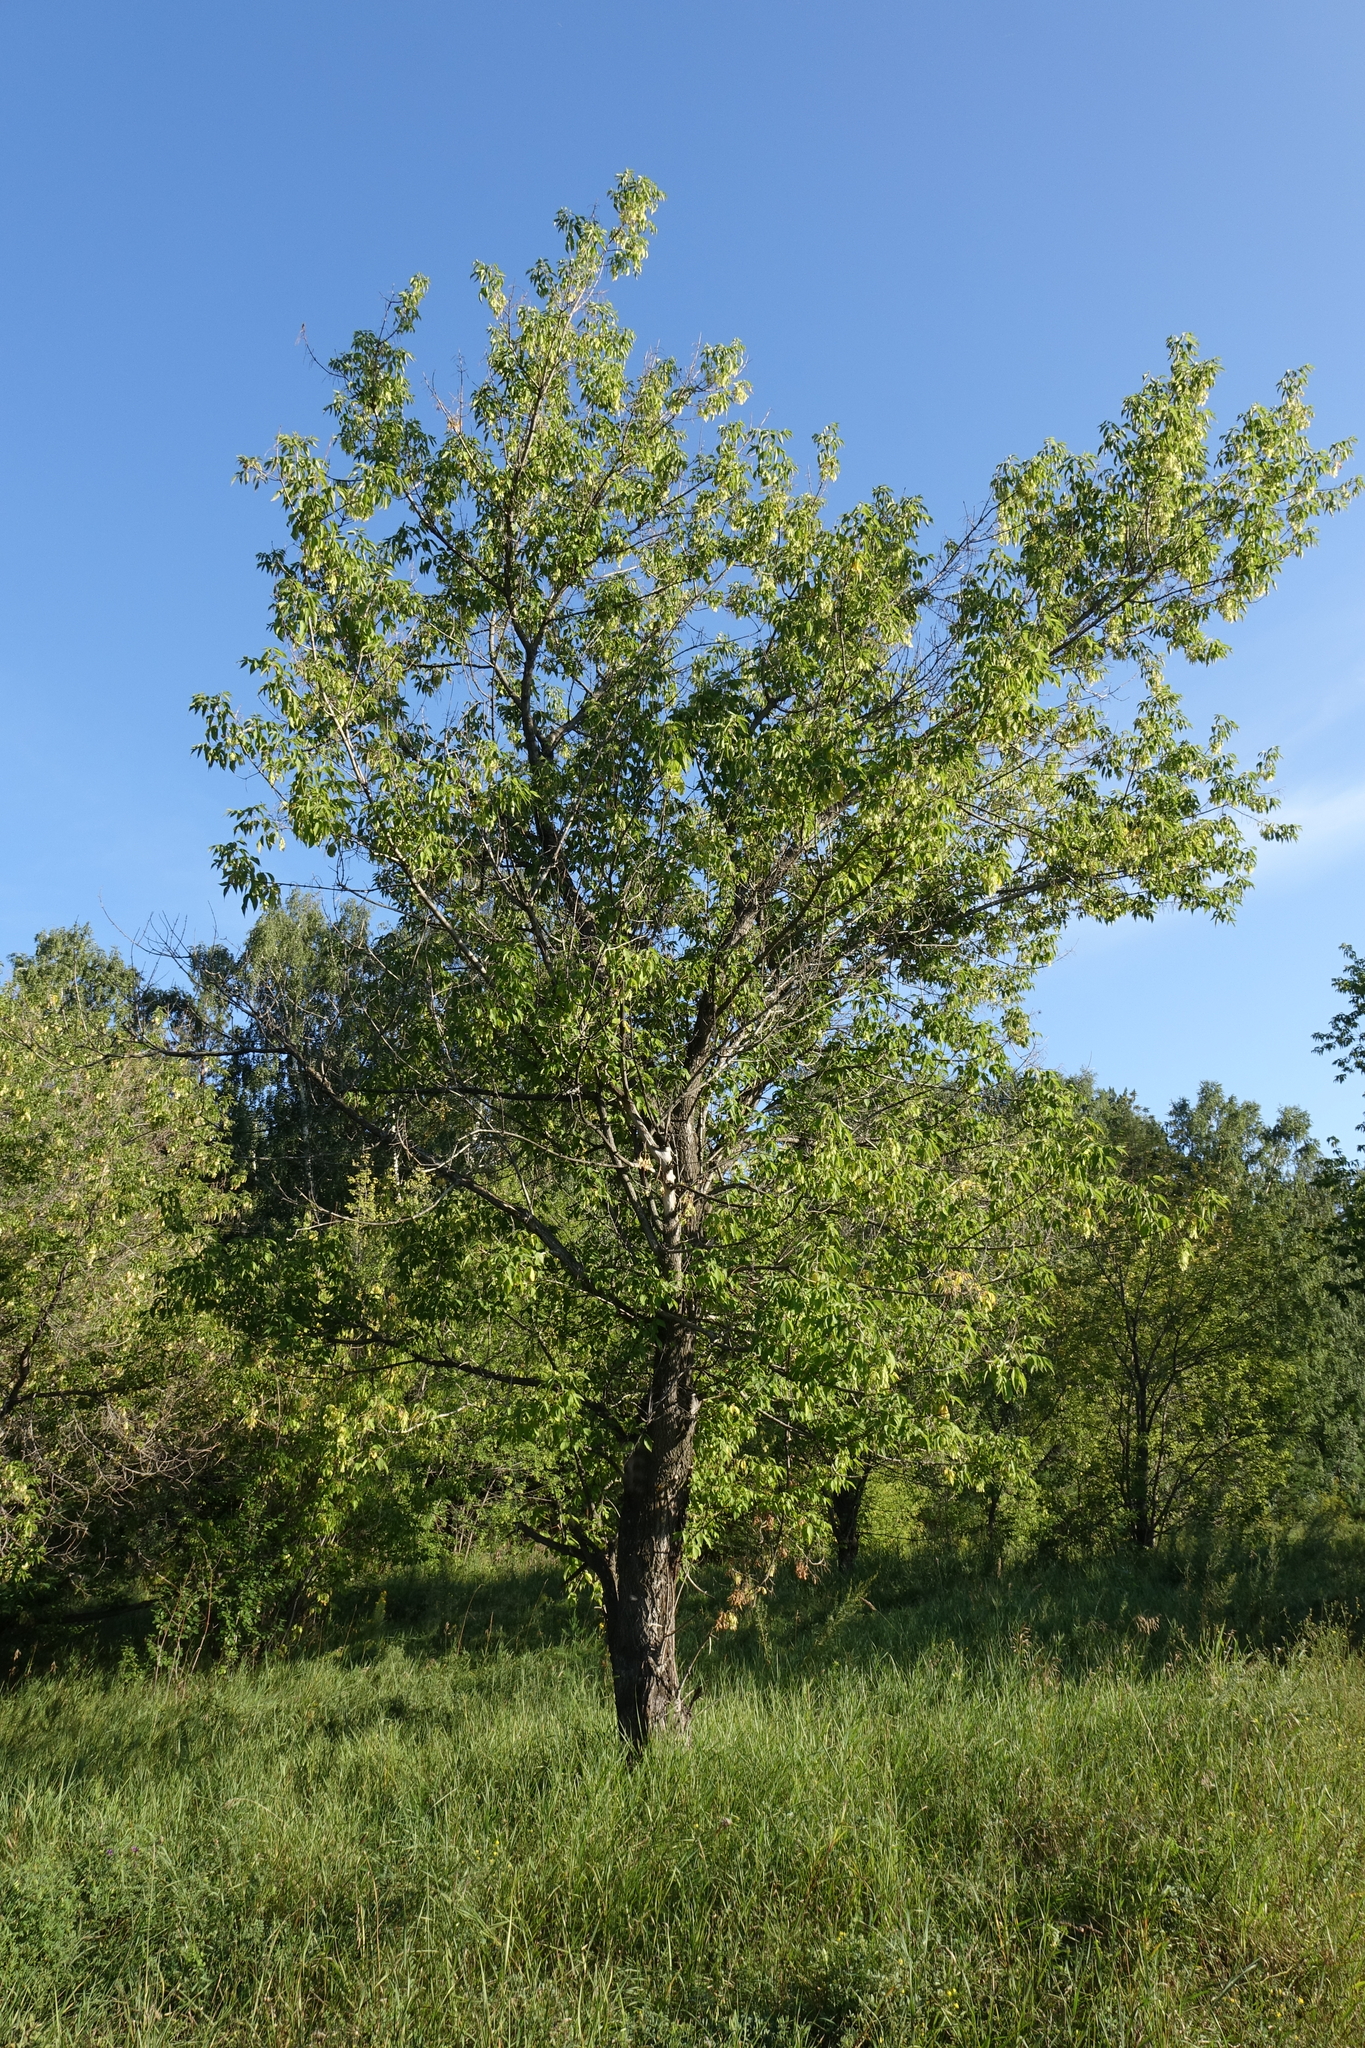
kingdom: Plantae
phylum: Tracheophyta
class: Magnoliopsida
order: Sapindales
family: Sapindaceae
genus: Acer
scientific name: Acer negundo
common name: Ashleaf maple
